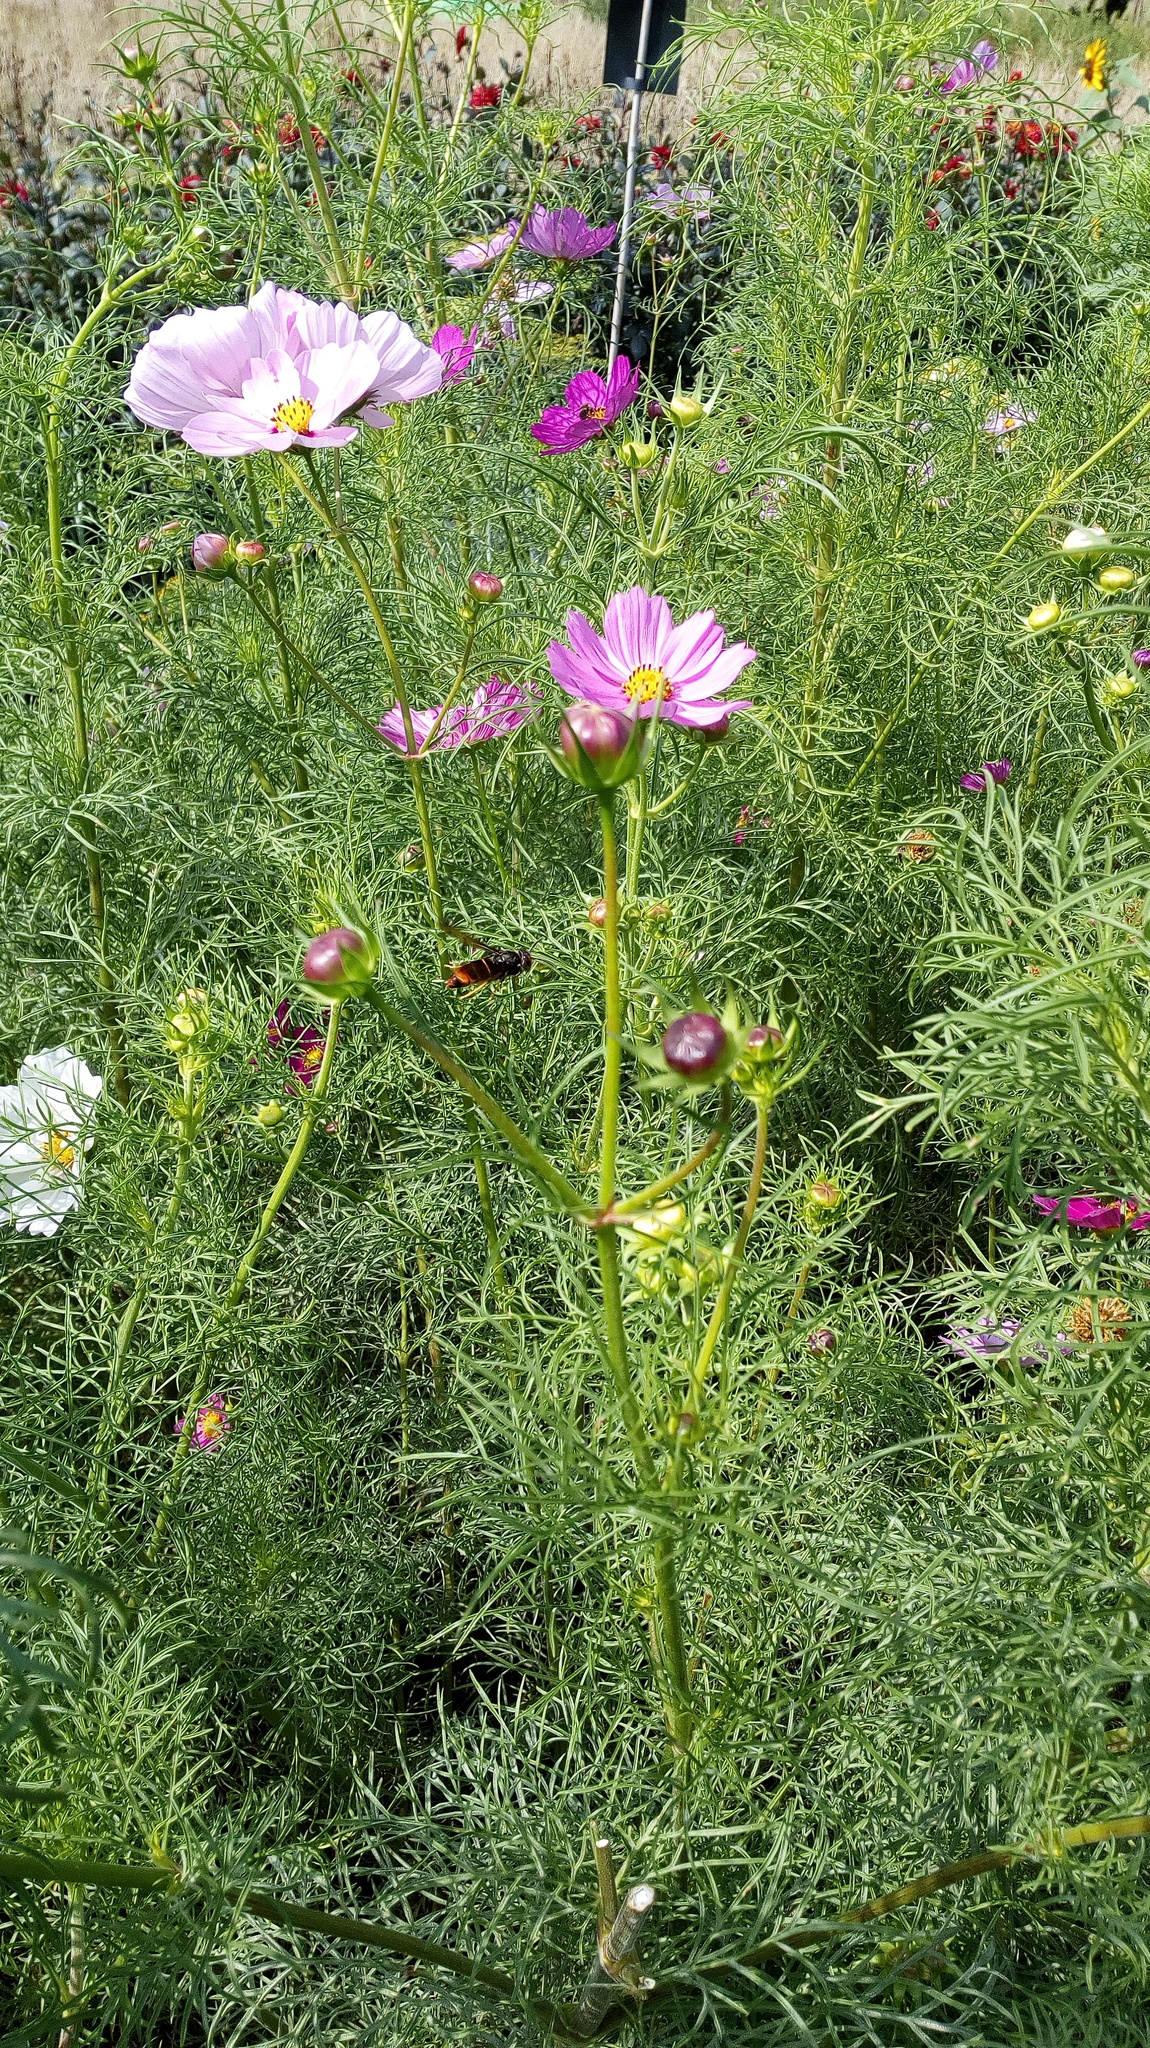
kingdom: Animalia
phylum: Arthropoda
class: Insecta
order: Hymenoptera
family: Vespidae
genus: Vespa
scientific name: Vespa velutina
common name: Asian hornet
